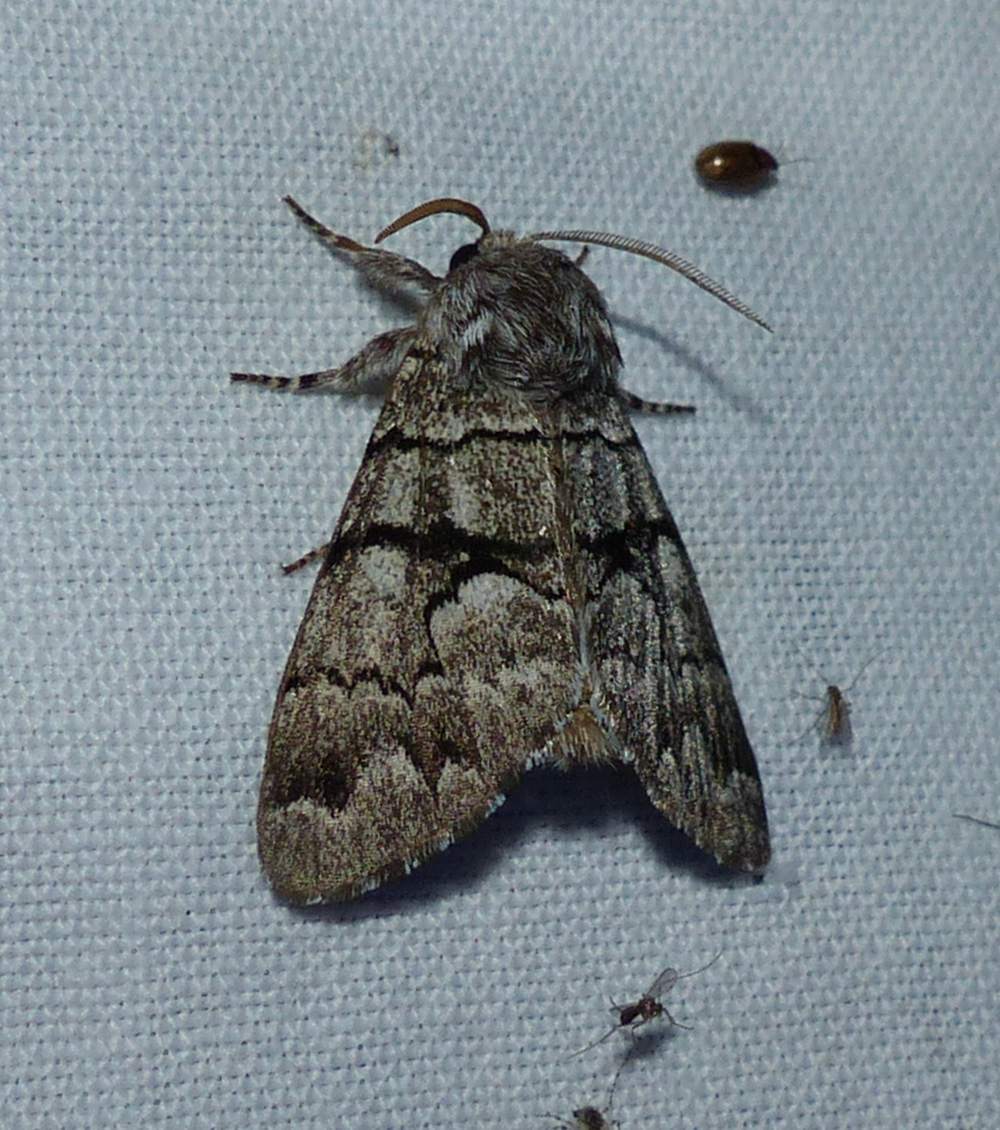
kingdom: Animalia
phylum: Arthropoda
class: Insecta
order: Lepidoptera
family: Noctuidae
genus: Panthea
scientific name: Panthea furcilla
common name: Eastern panthea moth
